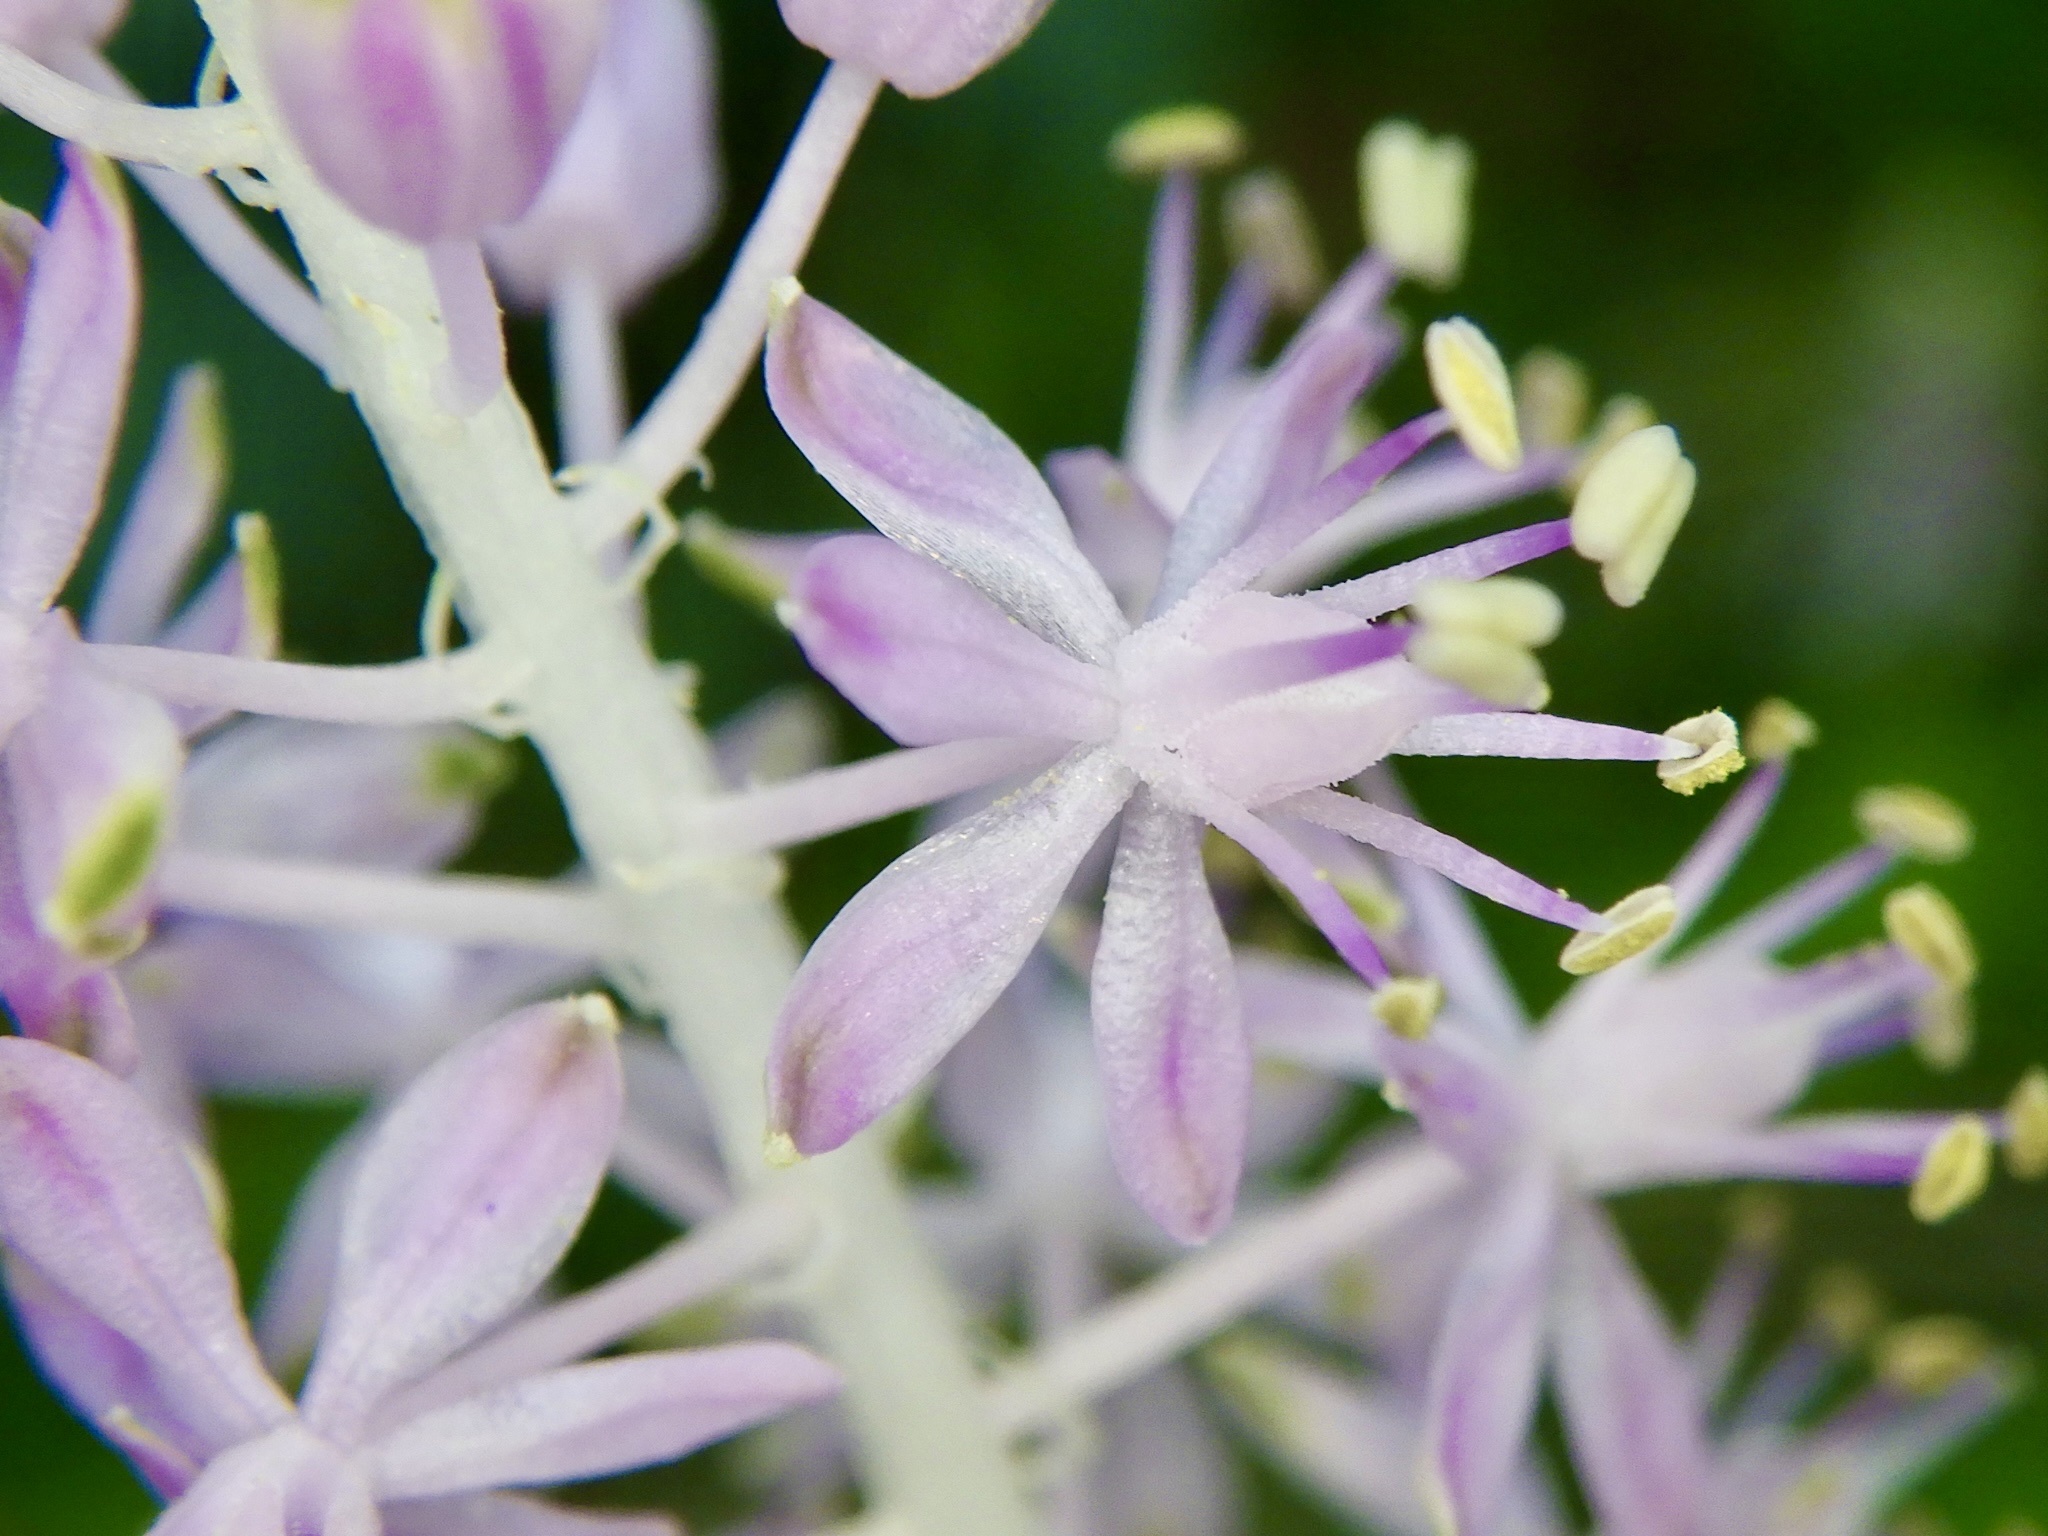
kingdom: Plantae
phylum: Tracheophyta
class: Liliopsida
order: Asparagales
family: Asparagaceae
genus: Barnardia
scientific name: Barnardia japonica
